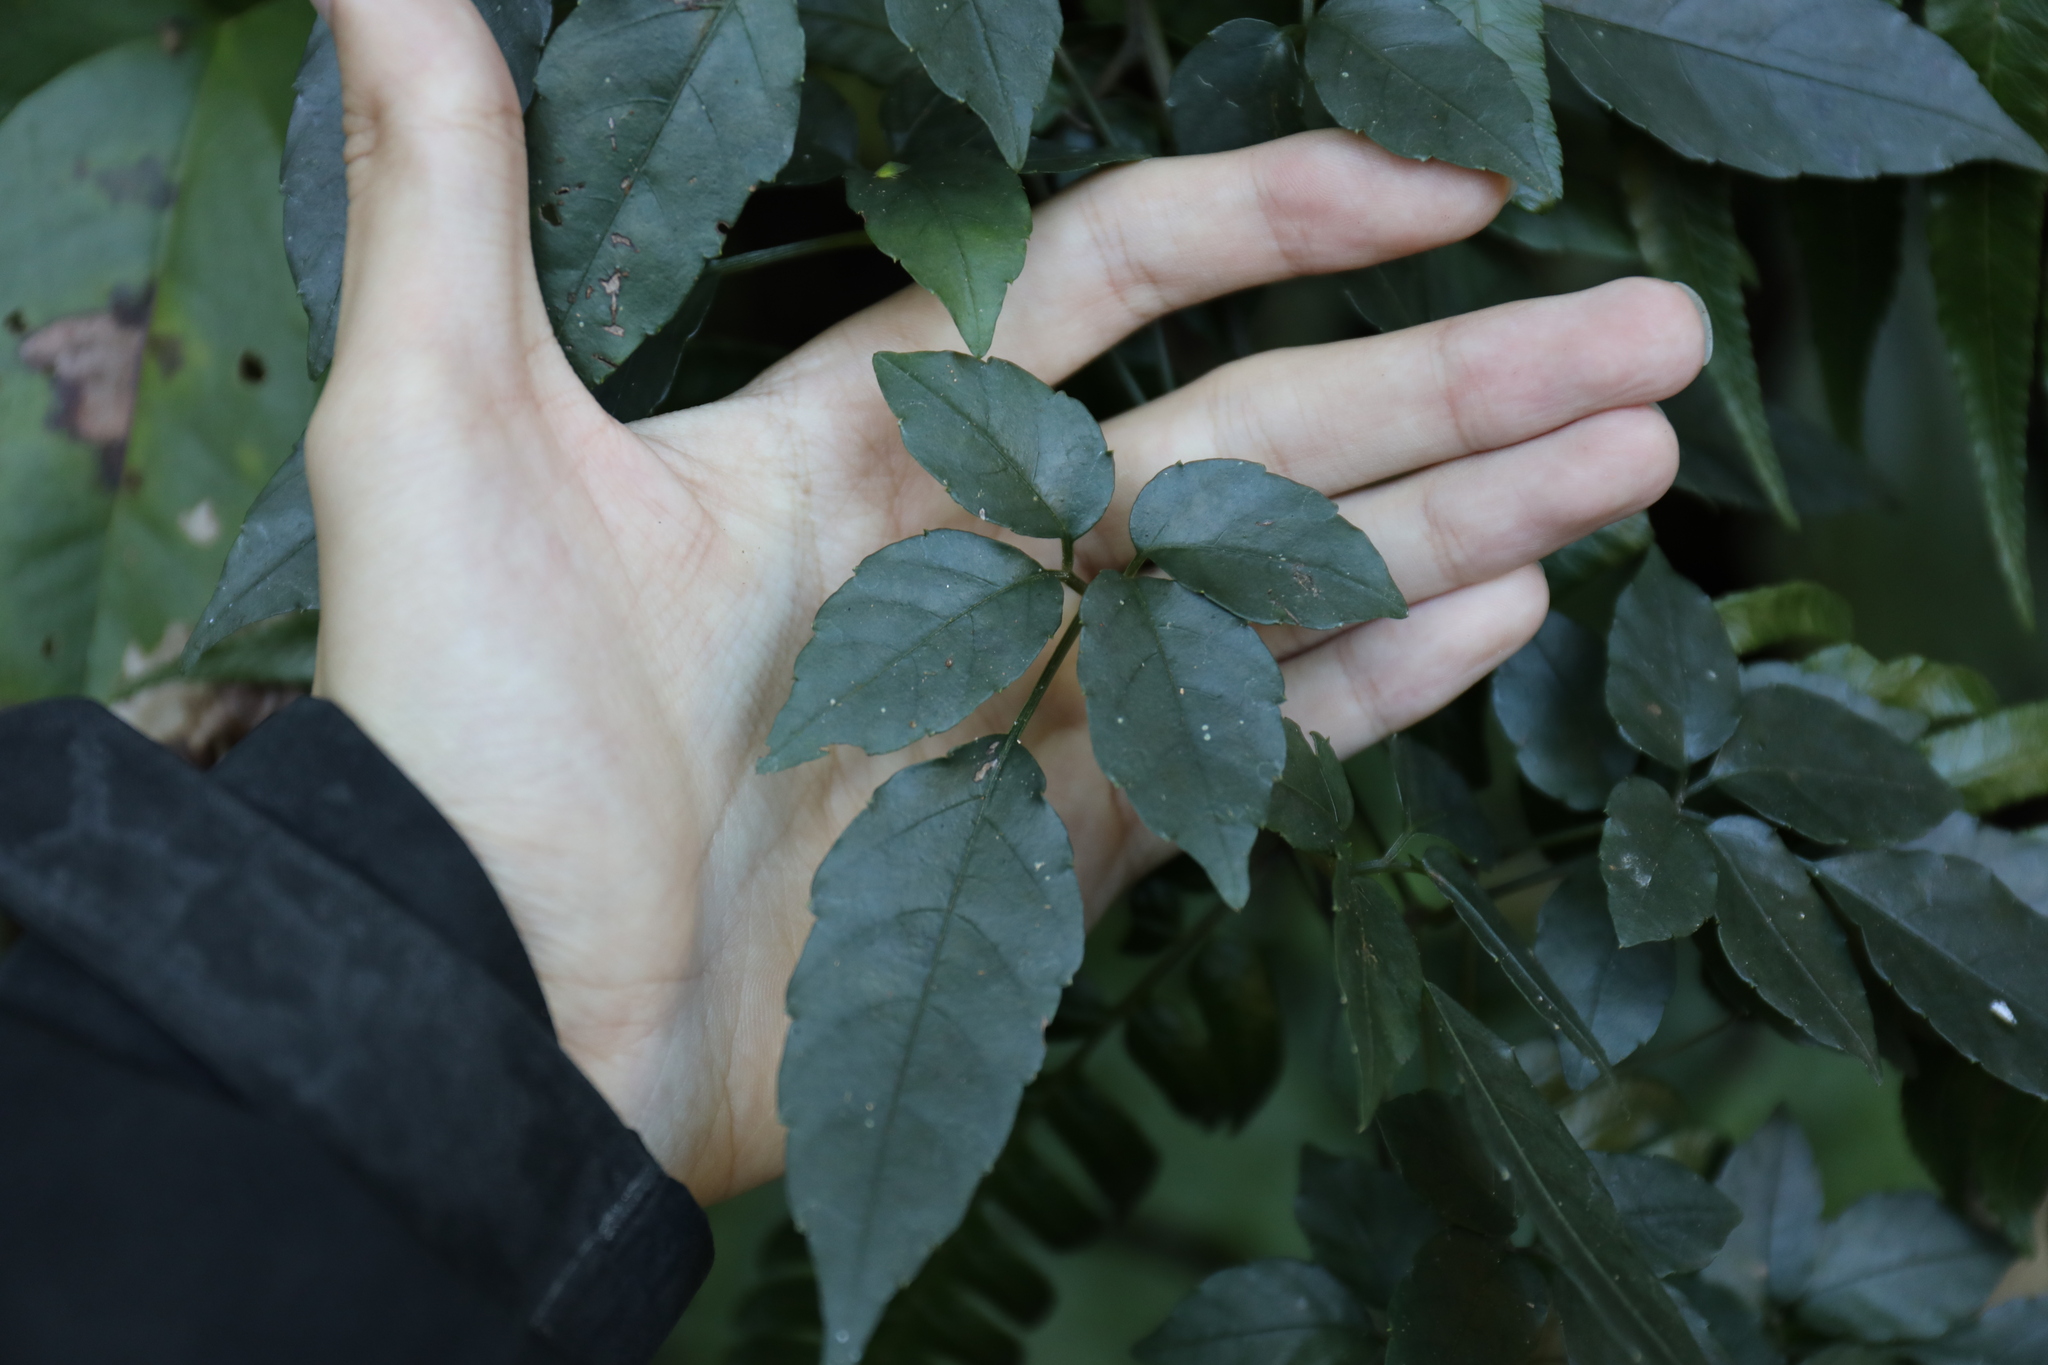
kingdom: Plantae
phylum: Tracheophyta
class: Magnoliopsida
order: Vitales
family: Vitaceae
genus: Causonis
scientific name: Causonis corniculata
